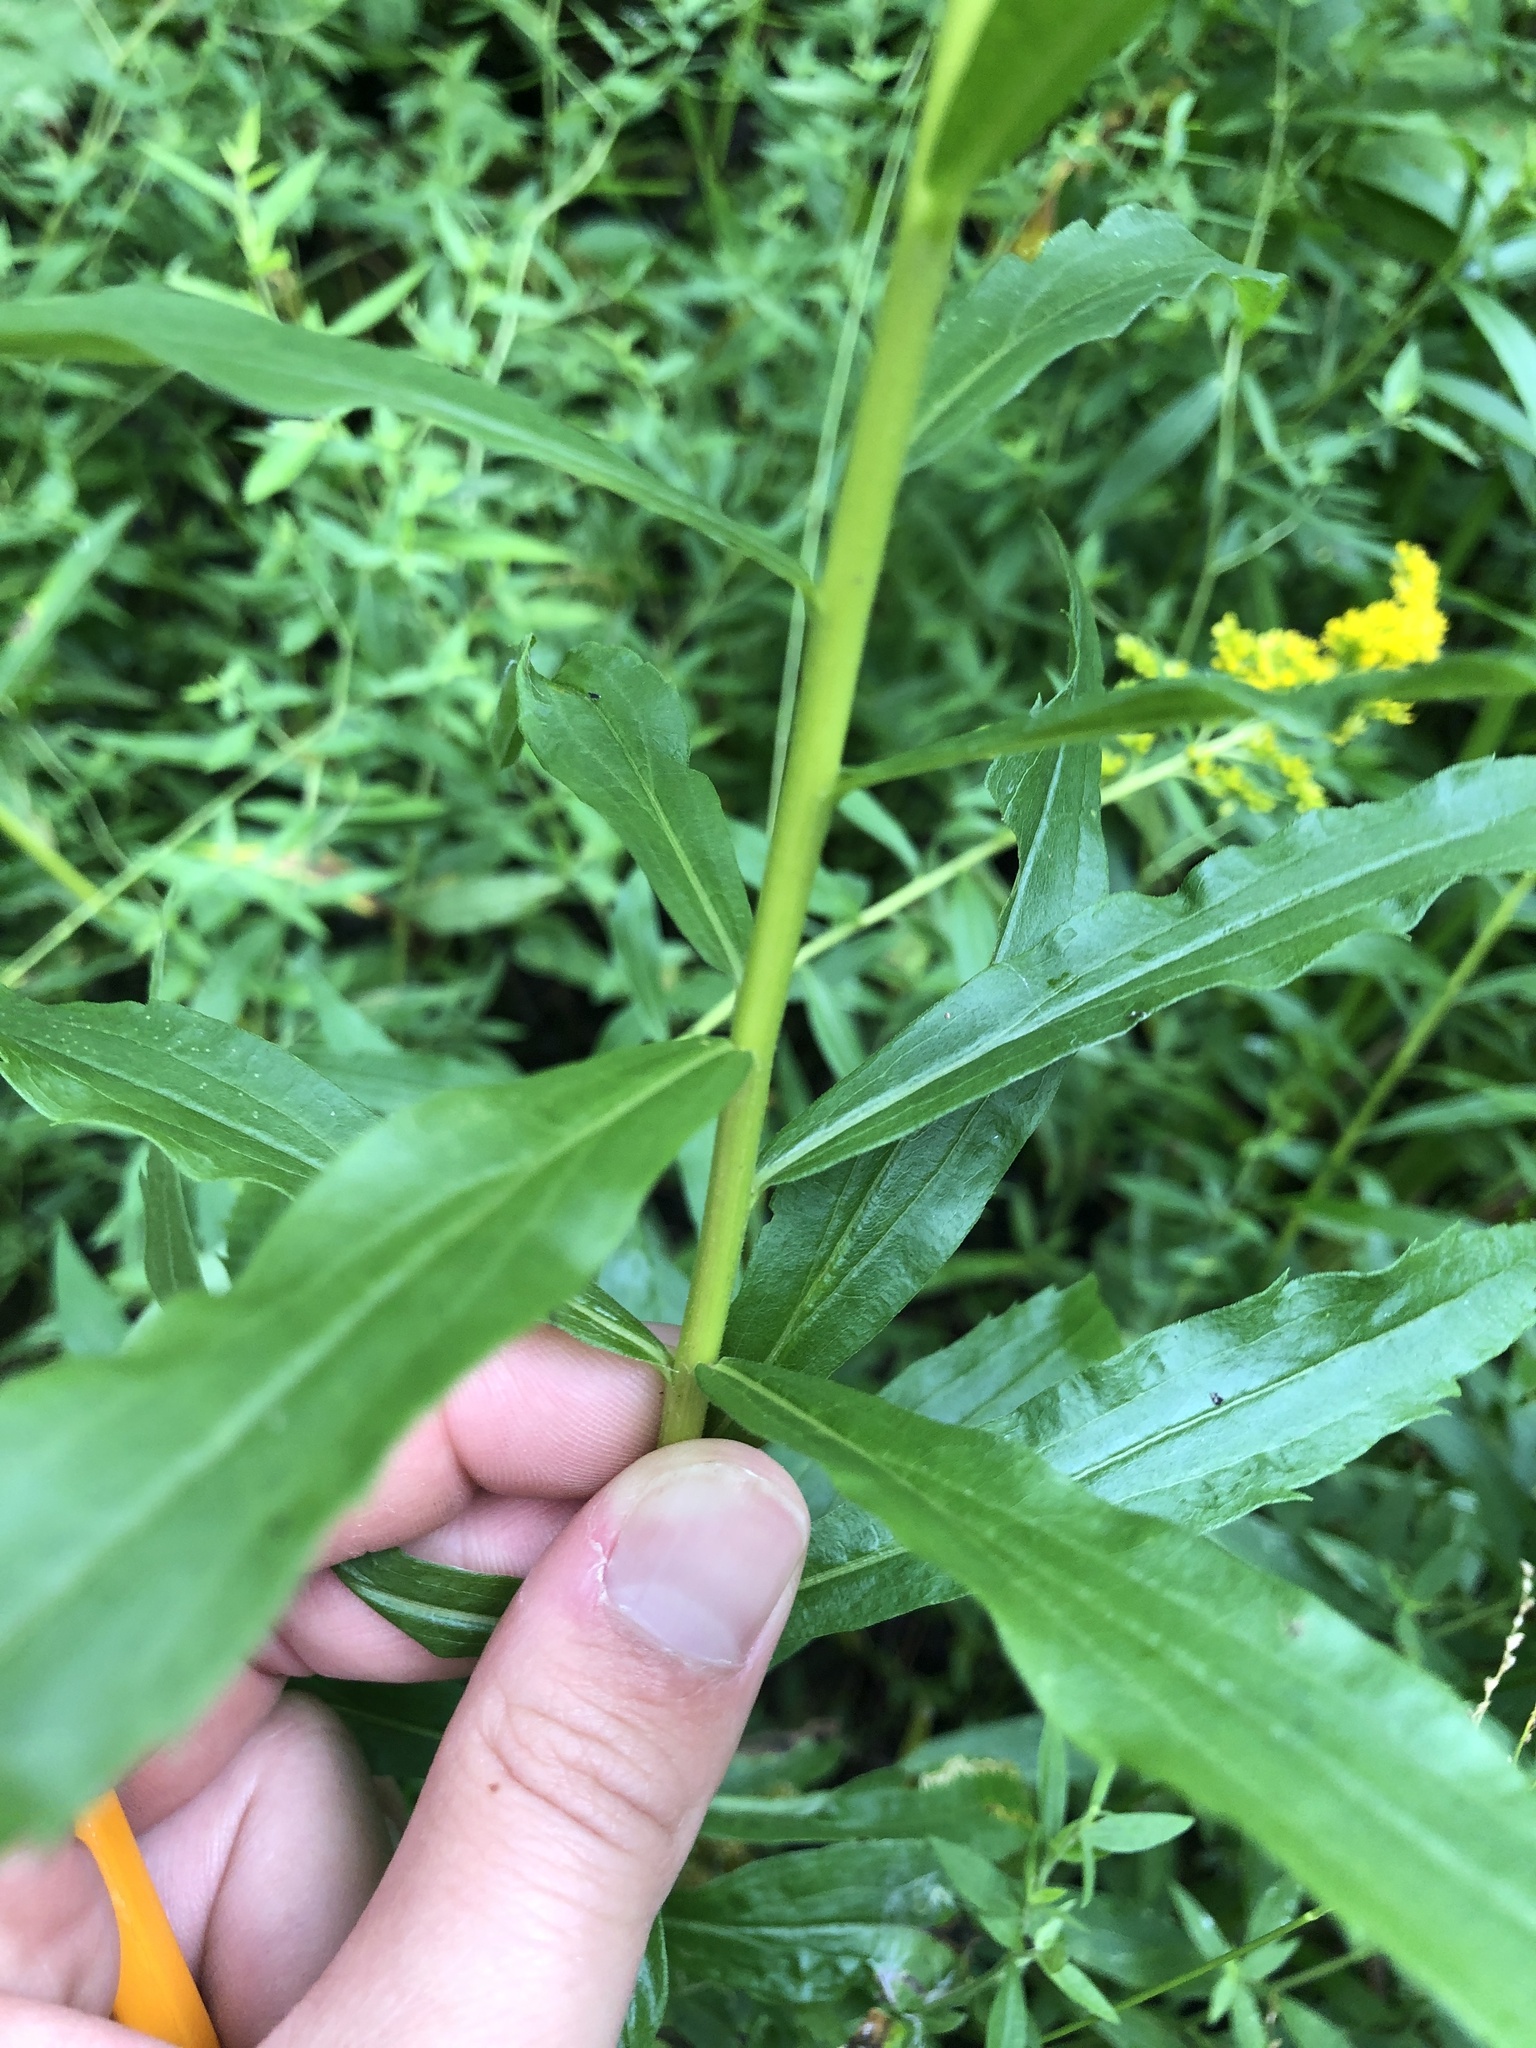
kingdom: Plantae
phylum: Tracheophyta
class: Magnoliopsida
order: Asterales
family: Asteraceae
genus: Solidago
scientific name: Solidago altissima
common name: Late goldenrod
